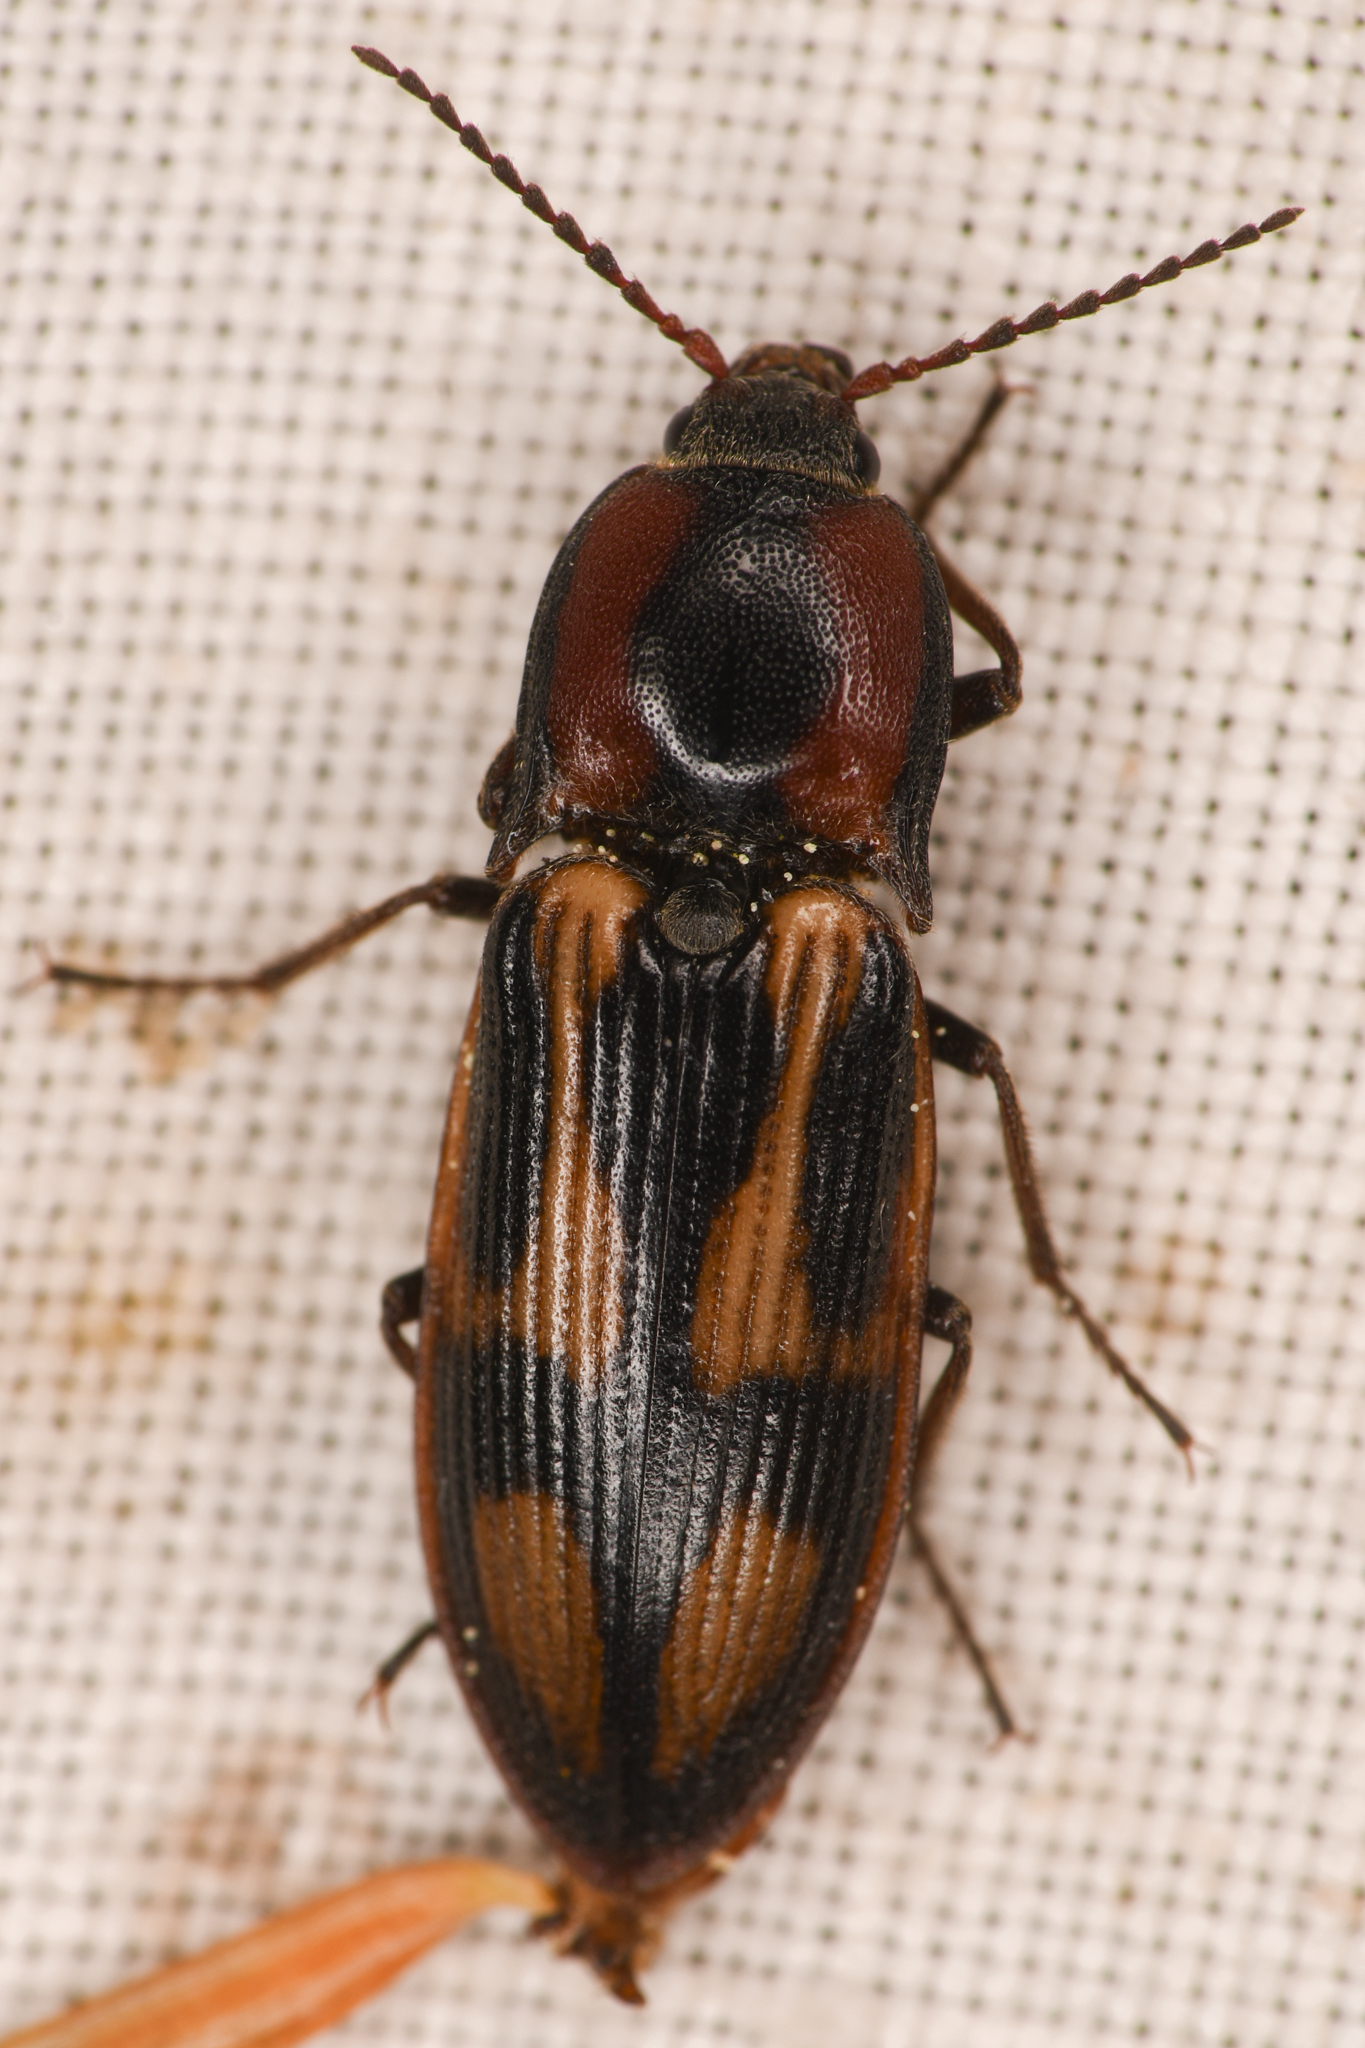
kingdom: Animalia
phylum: Arthropoda
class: Insecta
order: Coleoptera
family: Elateridae
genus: Selatosomus
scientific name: Selatosomus festivus
